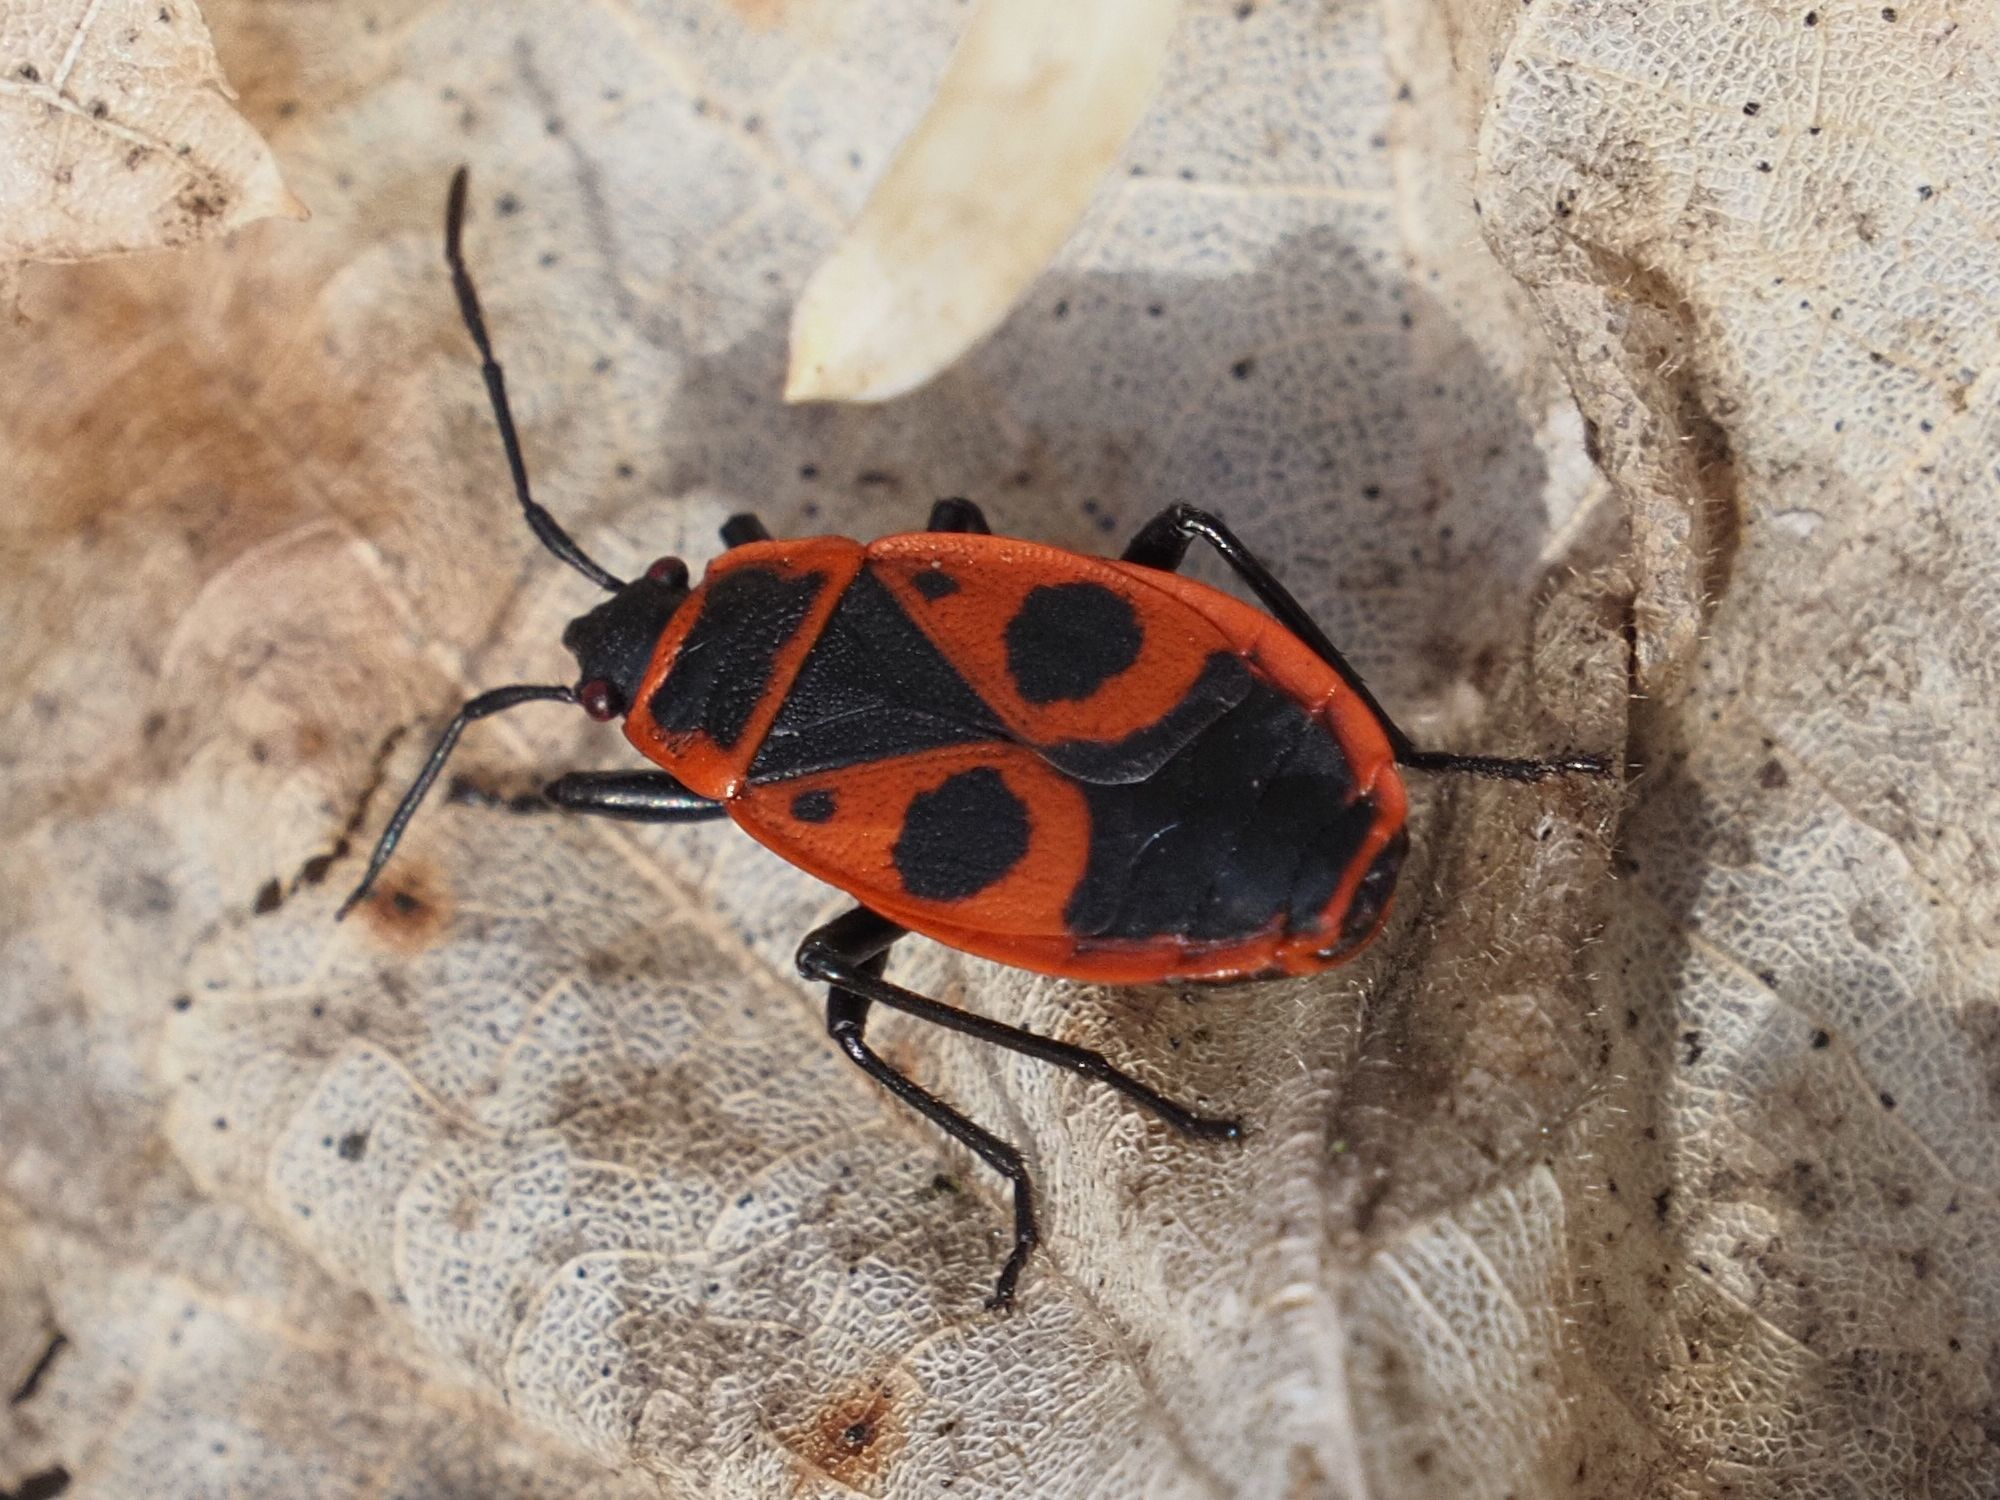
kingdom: Animalia
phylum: Arthropoda
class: Insecta
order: Hemiptera
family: Pyrrhocoridae
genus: Pyrrhocoris
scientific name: Pyrrhocoris apterus
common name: Firebug
